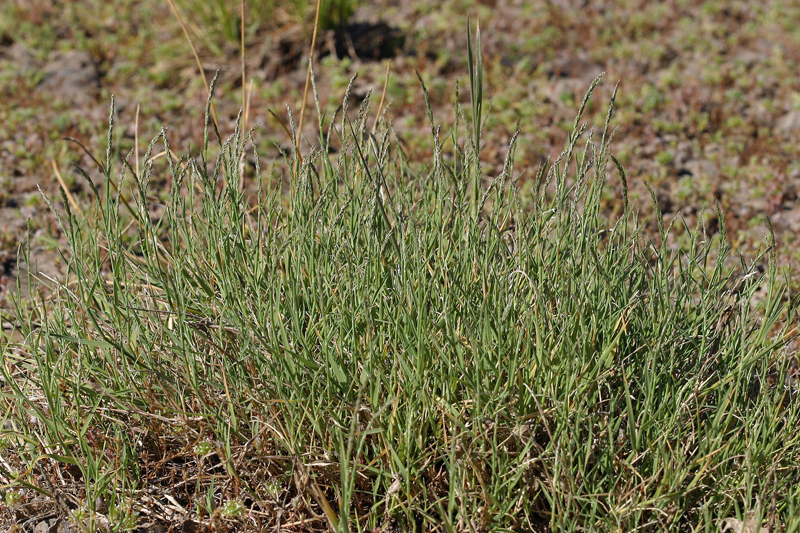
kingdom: Plantae
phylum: Tracheophyta
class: Liliopsida
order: Poales
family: Poaceae
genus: Muhlenbergia
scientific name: Muhlenbergia richardsonis
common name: Mat muhly
